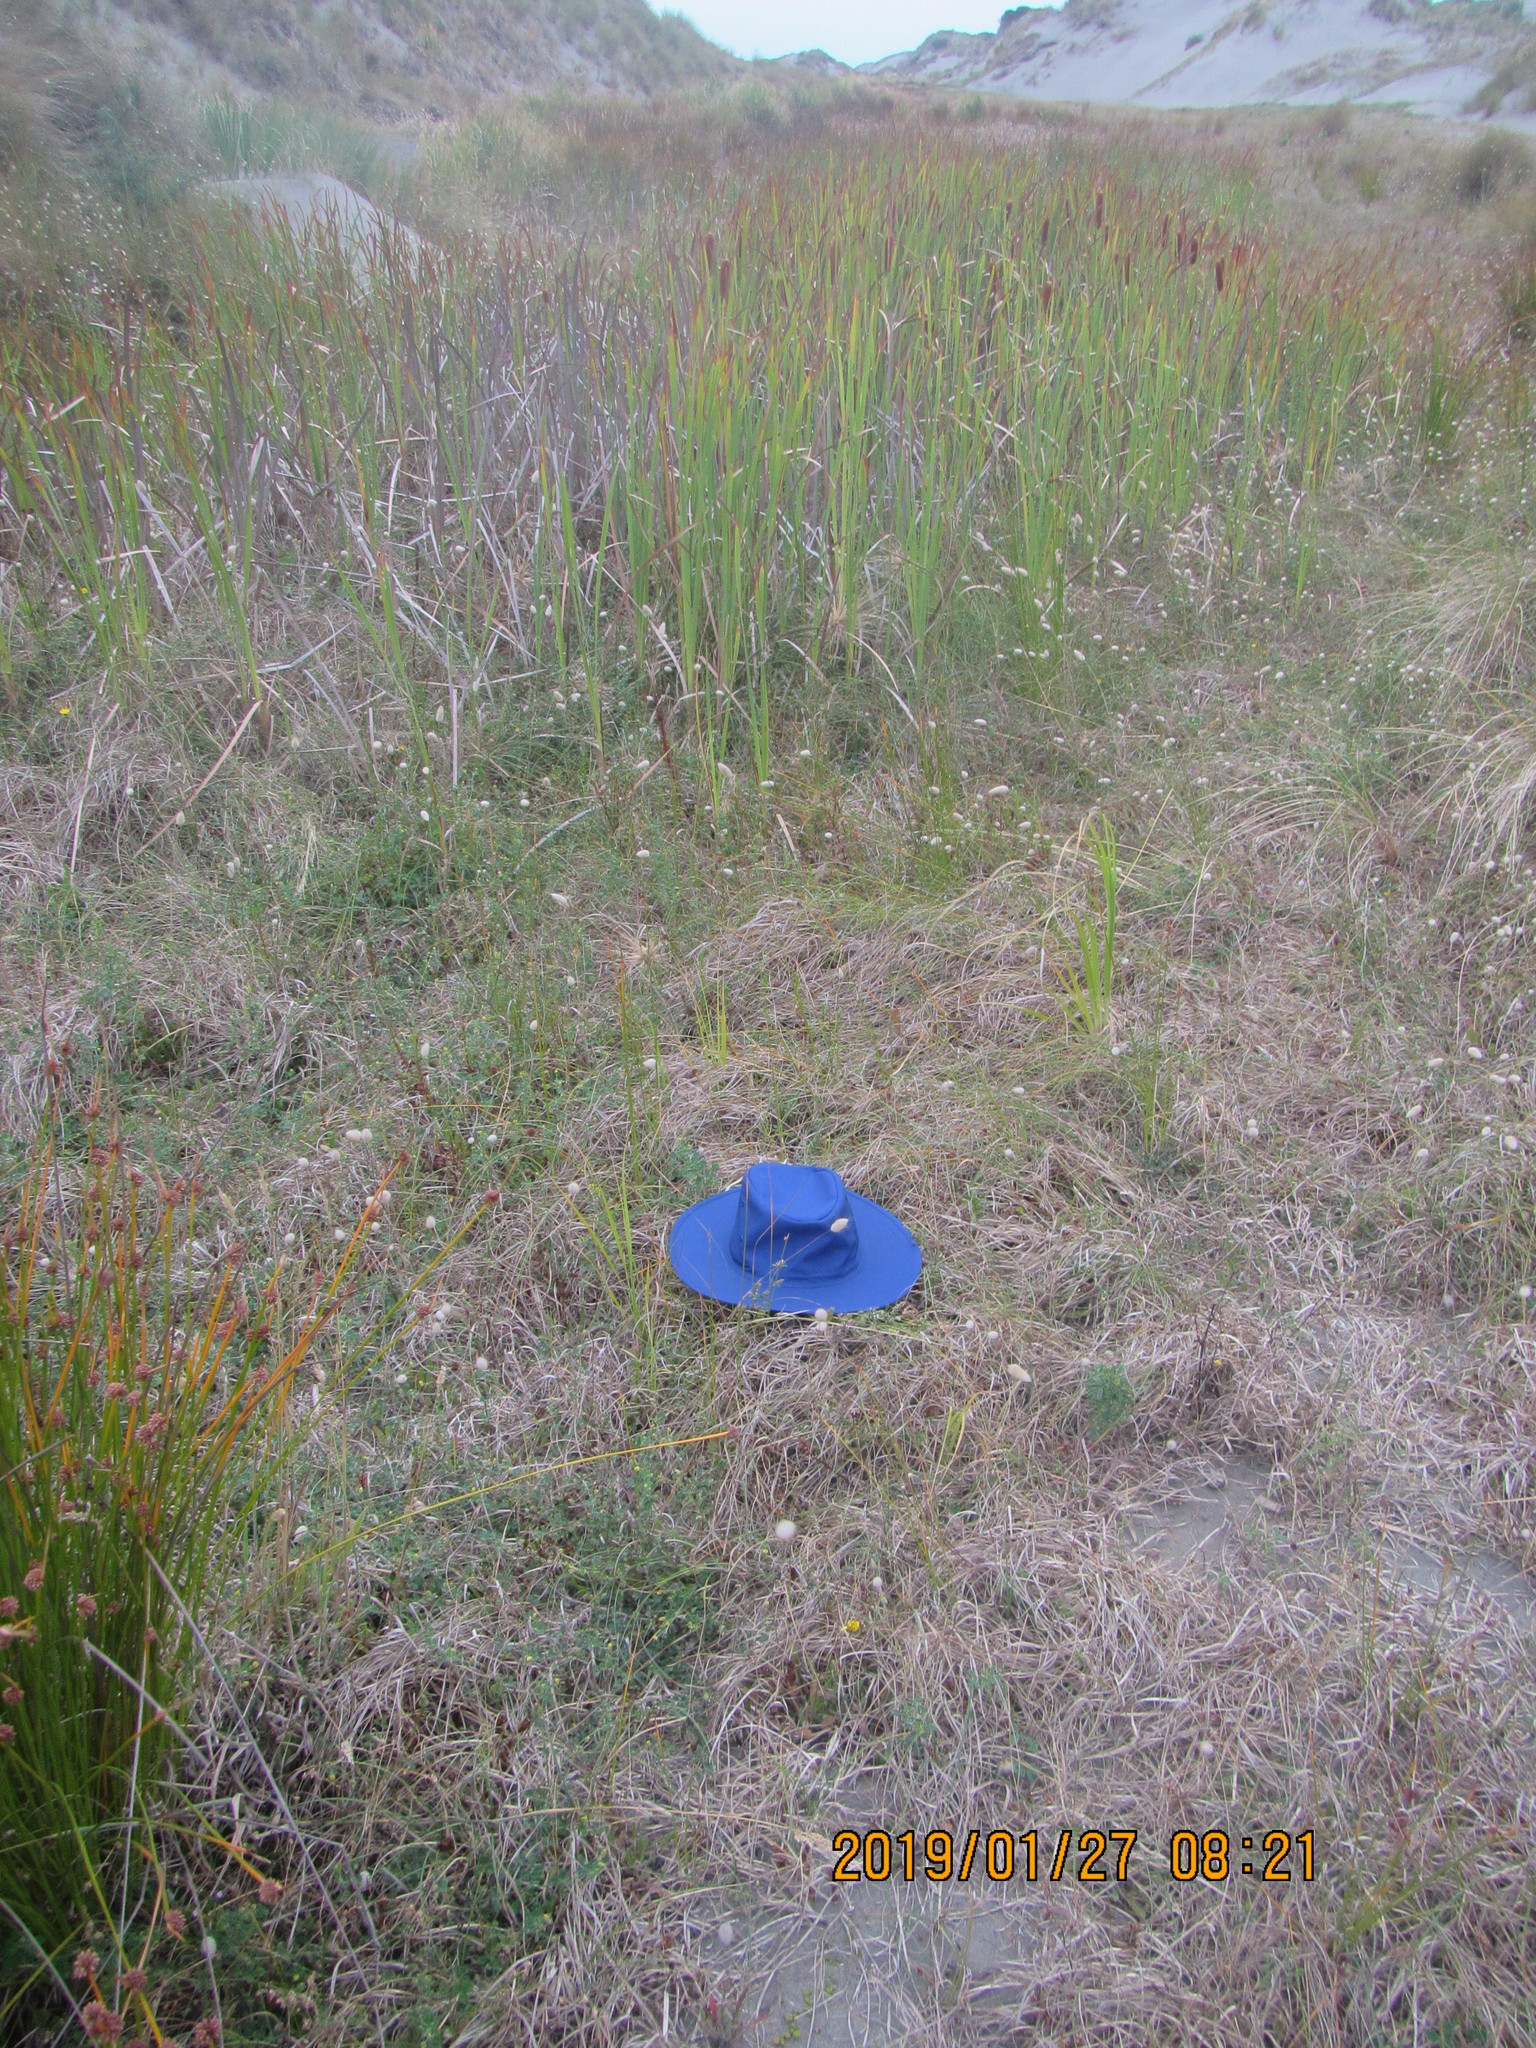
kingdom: Plantae
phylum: Tracheophyta
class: Magnoliopsida
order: Fabales
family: Fabaceae
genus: Melilotus
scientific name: Melilotus indicus
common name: Small melilot
